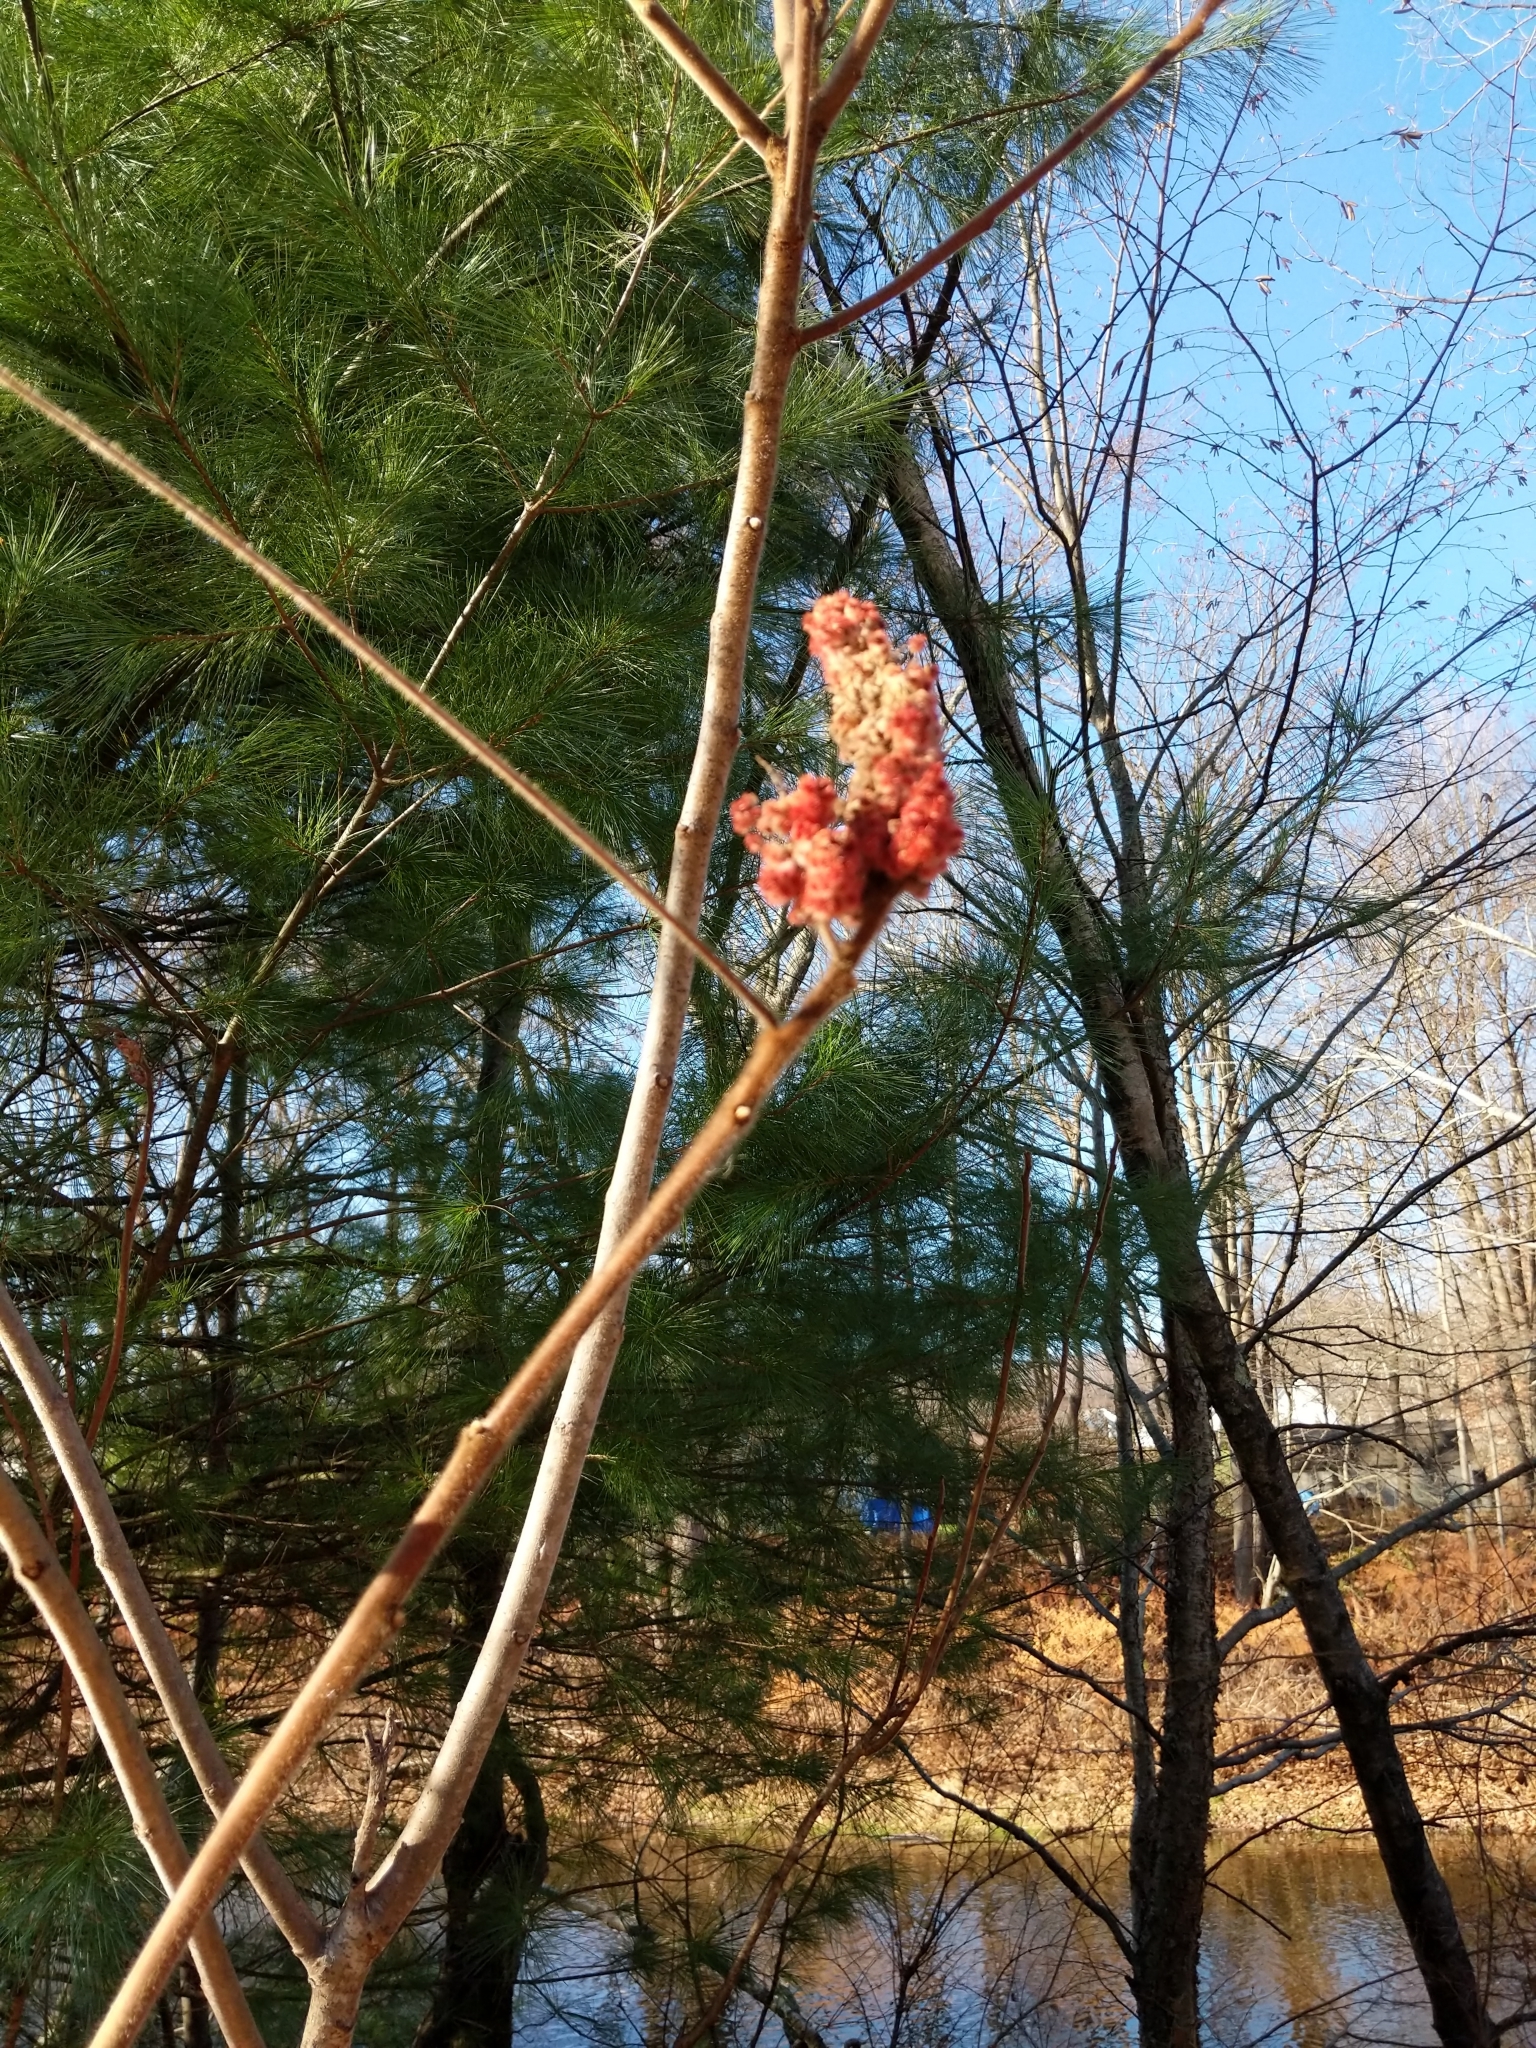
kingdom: Plantae
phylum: Tracheophyta
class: Magnoliopsida
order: Sapindales
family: Anacardiaceae
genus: Rhus
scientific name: Rhus typhina
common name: Staghorn sumac
